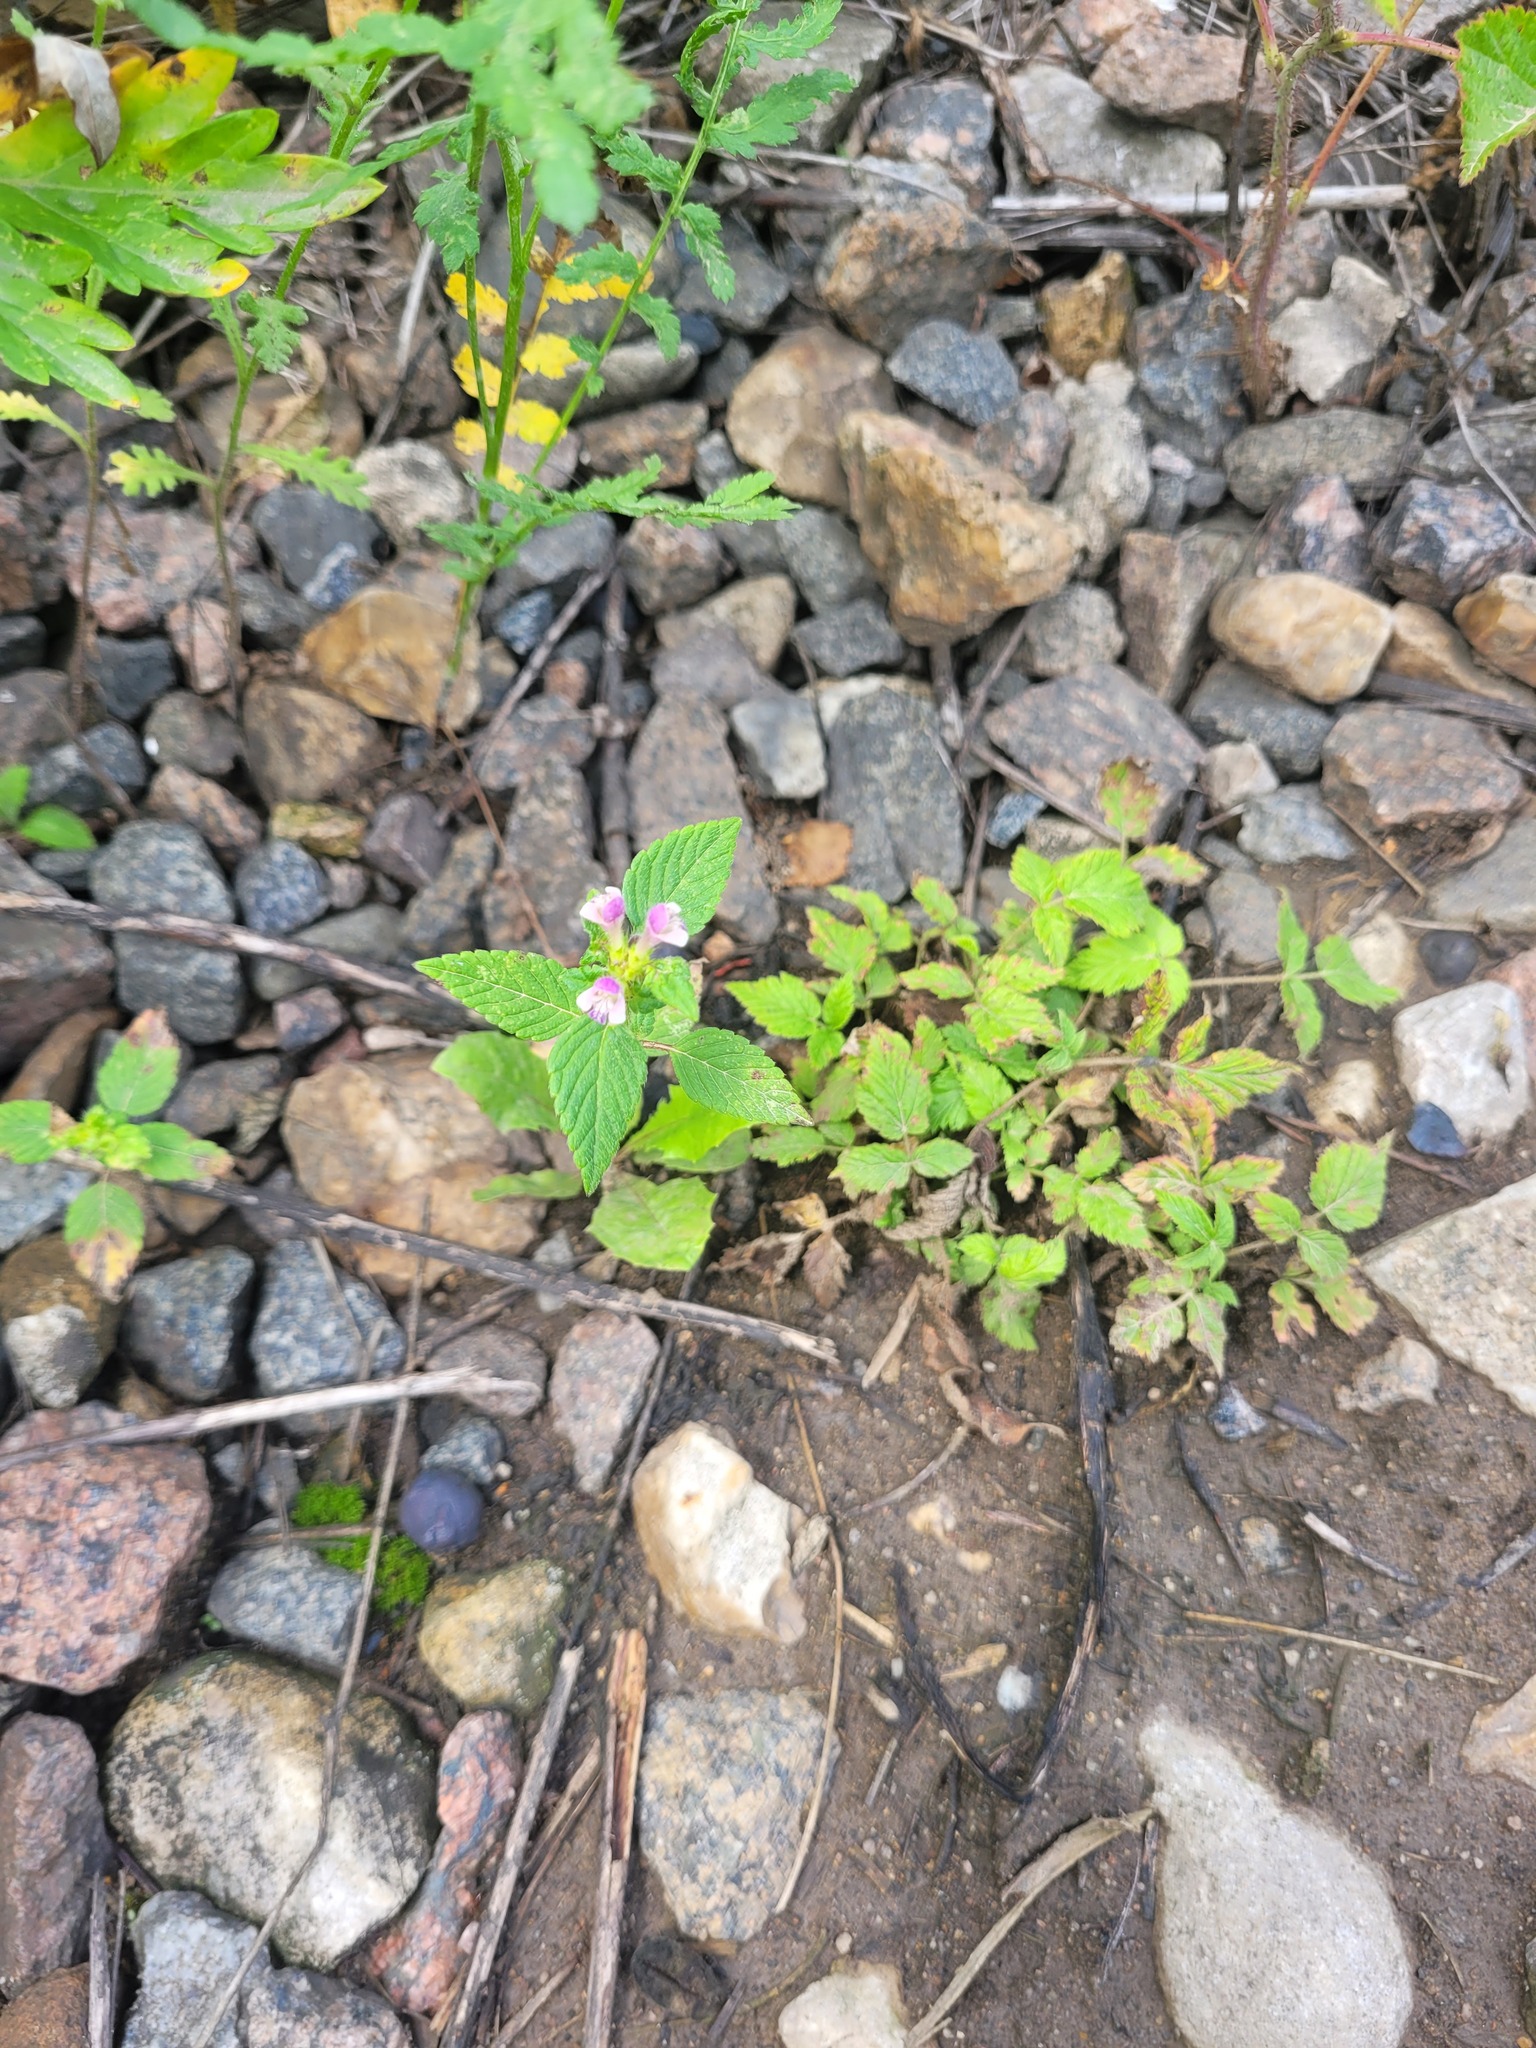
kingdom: Plantae
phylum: Tracheophyta
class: Magnoliopsida
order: Lamiales
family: Lamiaceae
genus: Galeopsis
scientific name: Galeopsis bifida
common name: Bifid hemp-nettle
